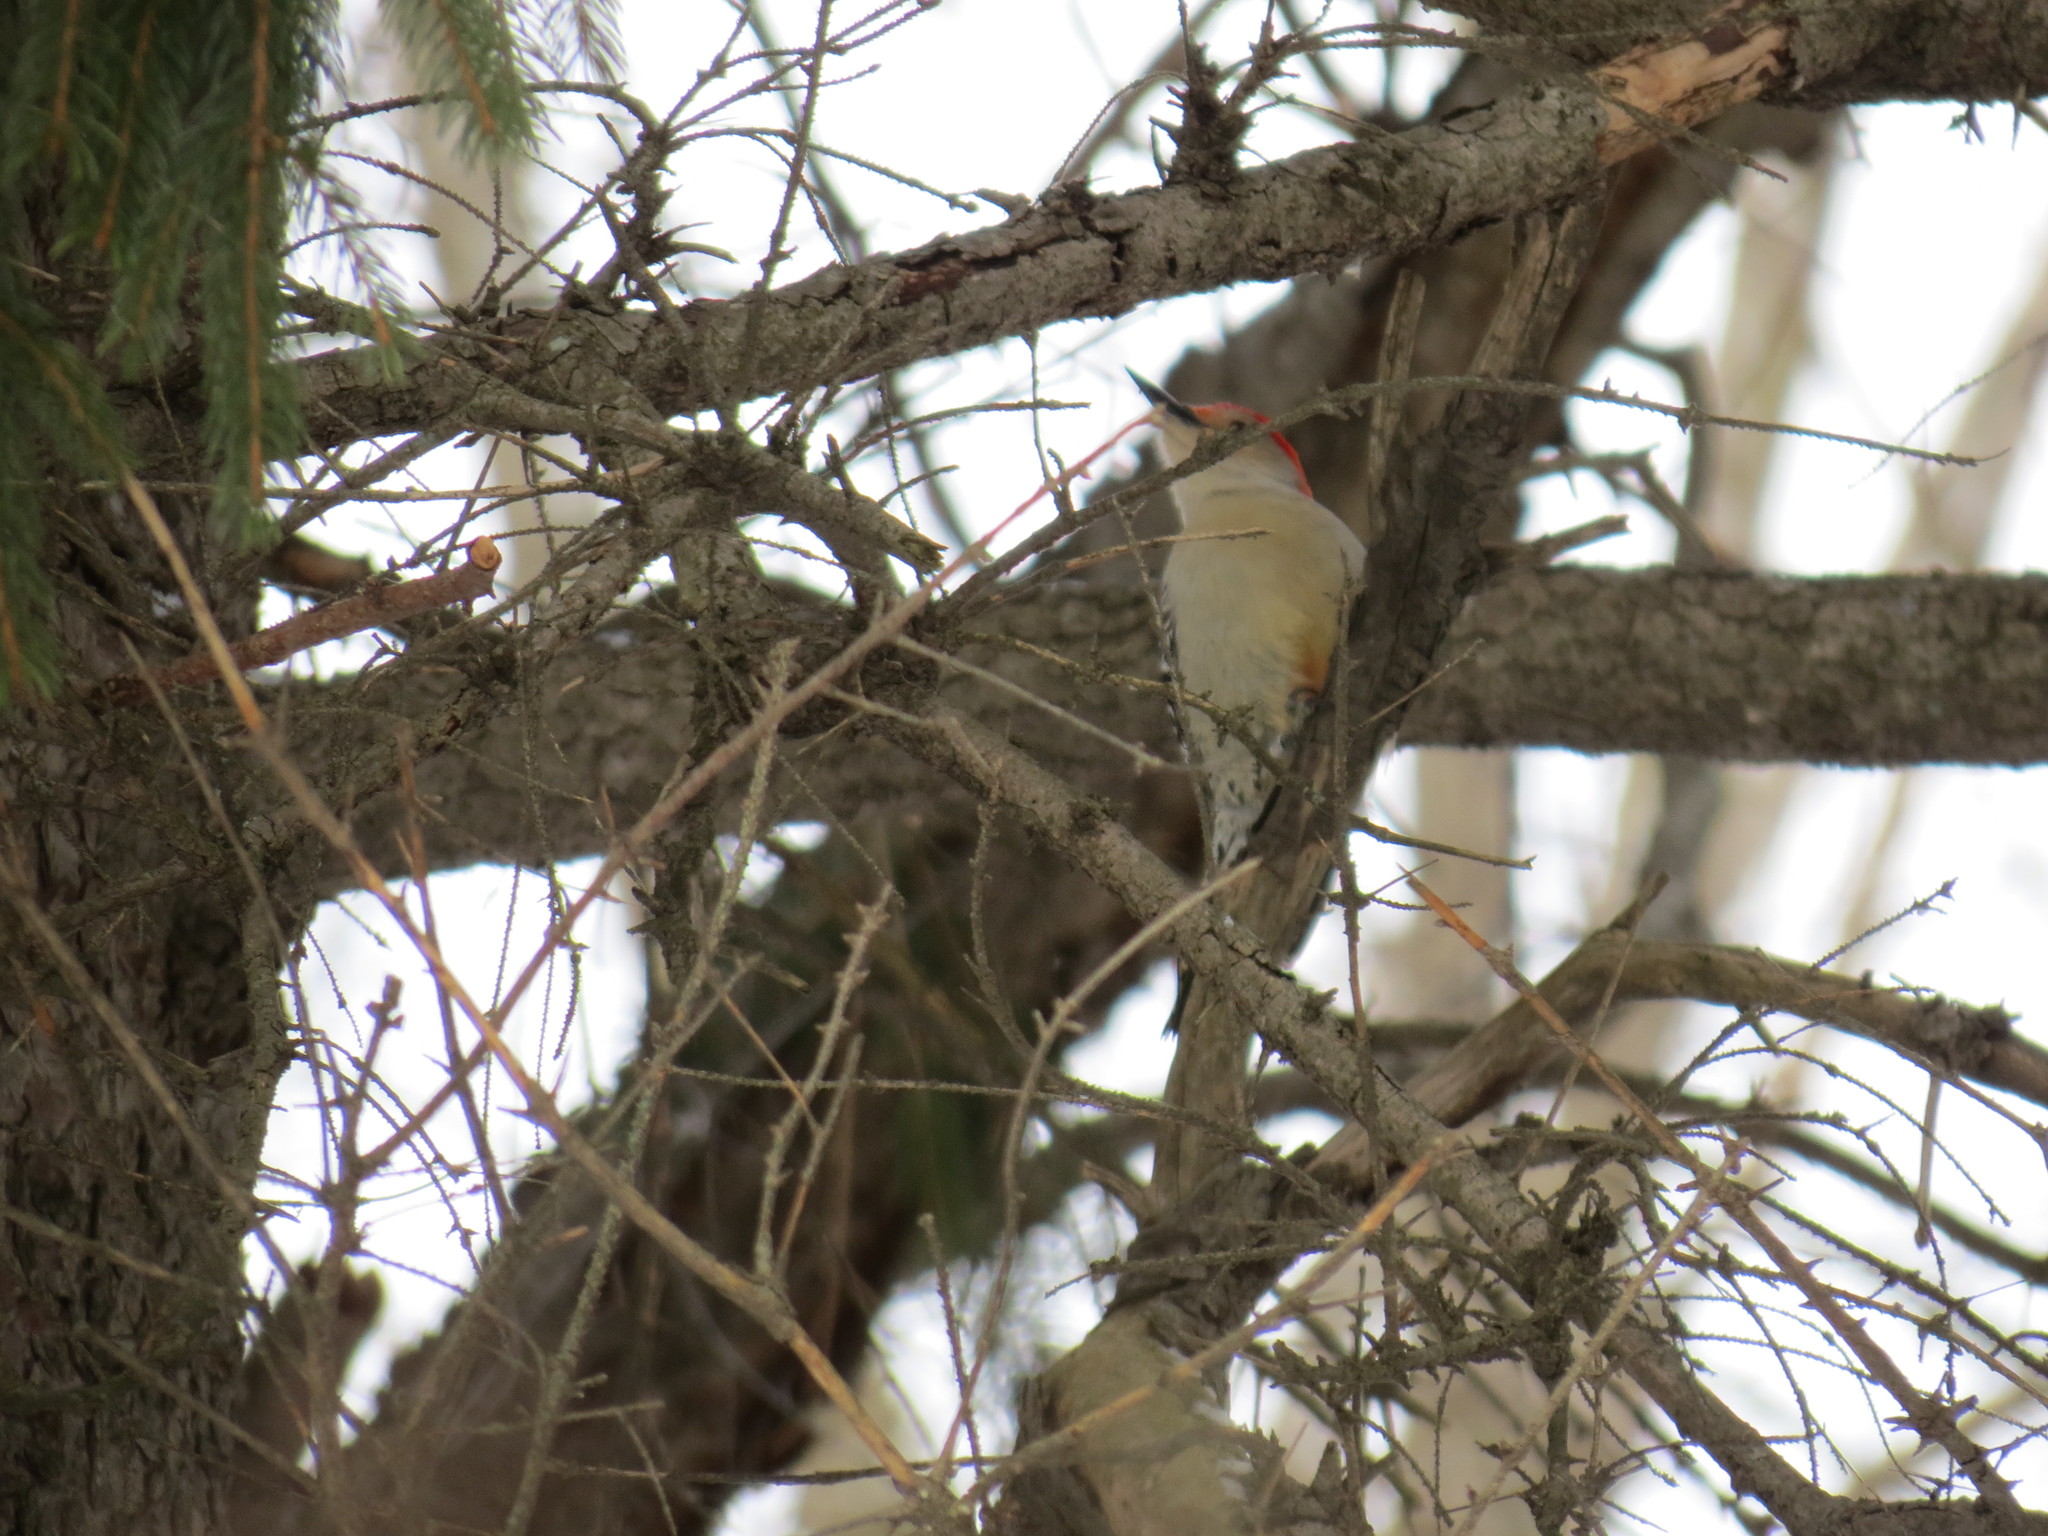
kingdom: Animalia
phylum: Chordata
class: Aves
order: Piciformes
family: Picidae
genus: Melanerpes
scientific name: Melanerpes carolinus
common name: Red-bellied woodpecker
